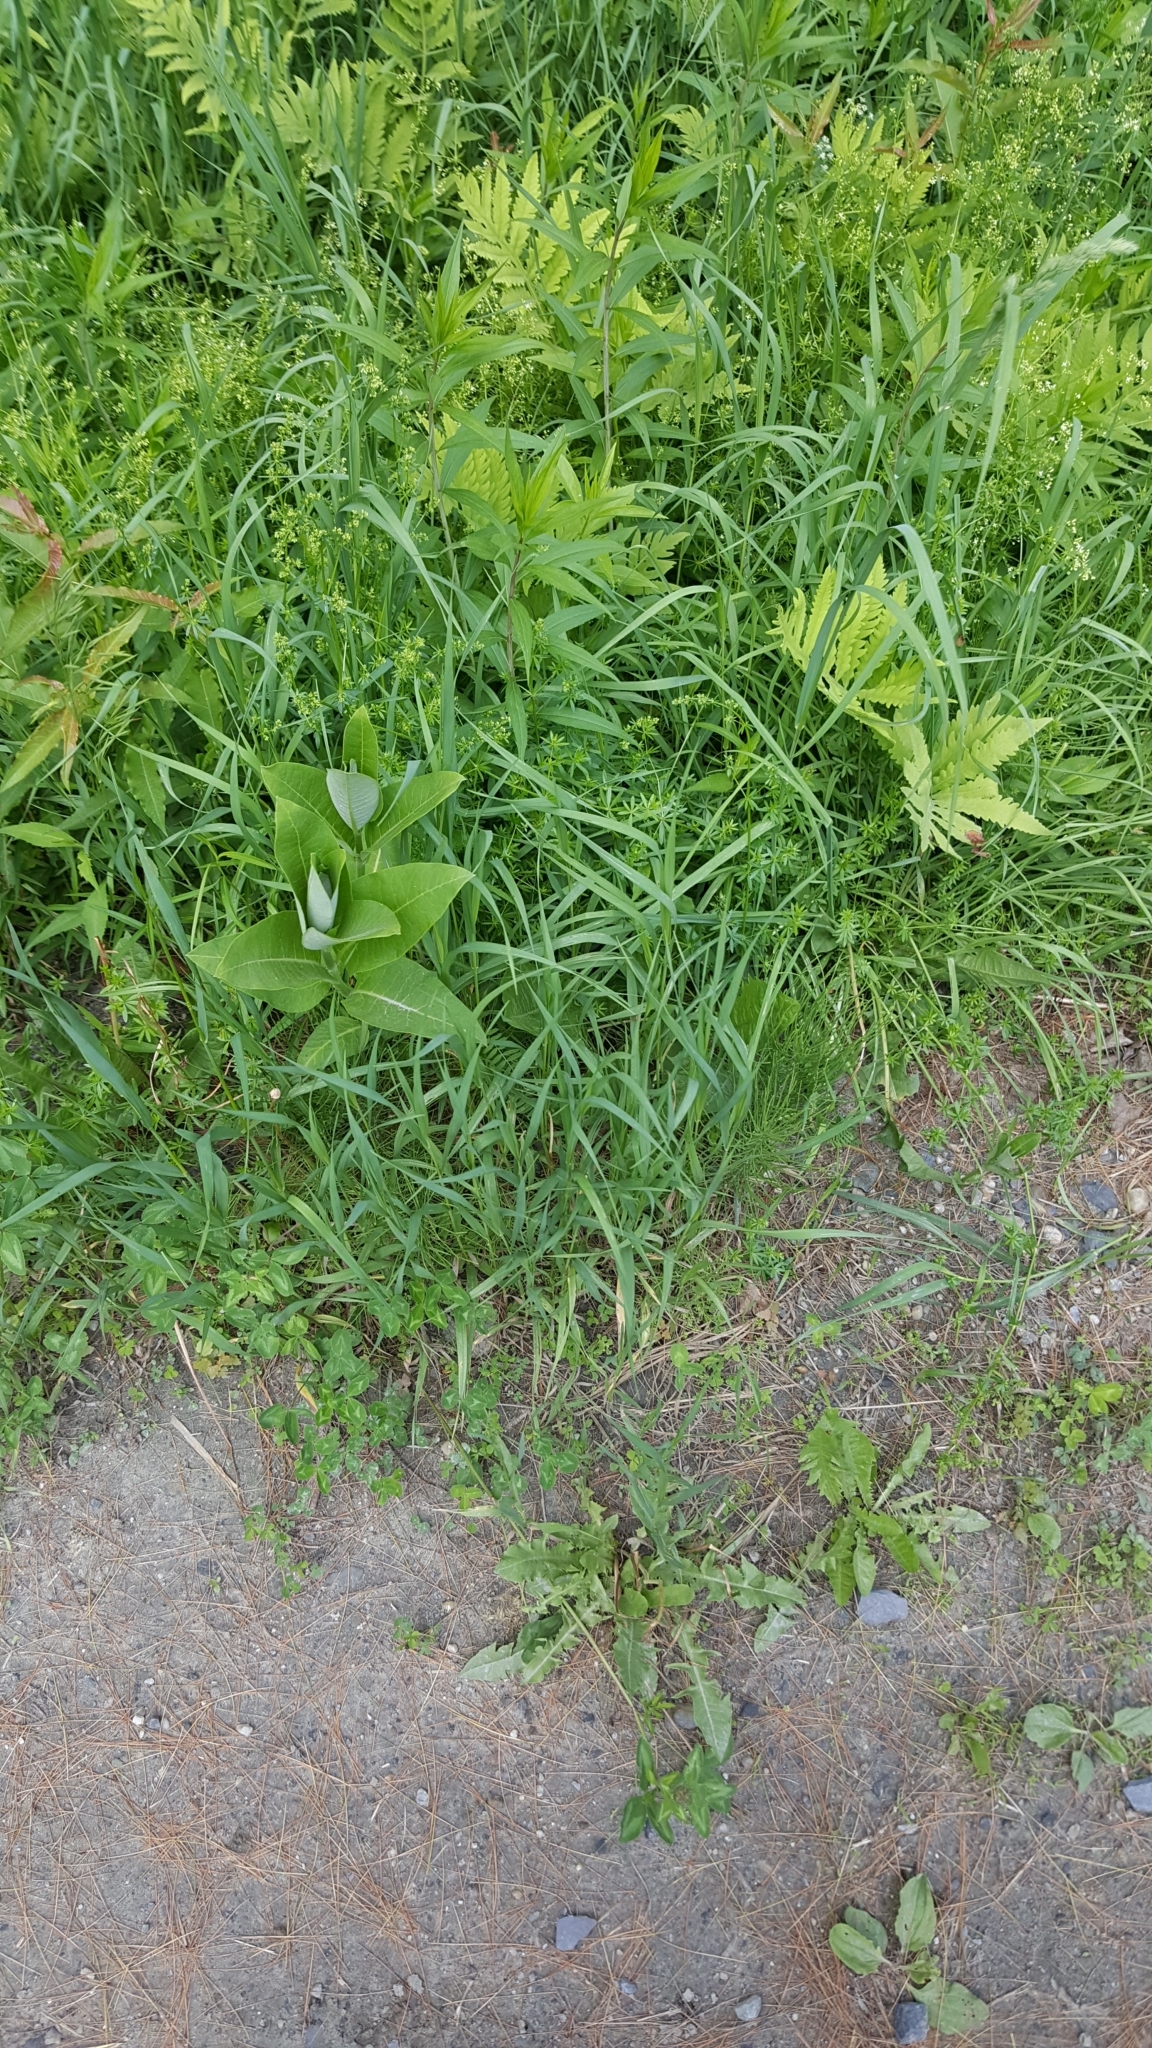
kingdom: Plantae
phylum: Tracheophyta
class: Magnoliopsida
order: Gentianales
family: Apocynaceae
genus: Asclepias
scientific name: Asclepias syriaca
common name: Common milkweed
